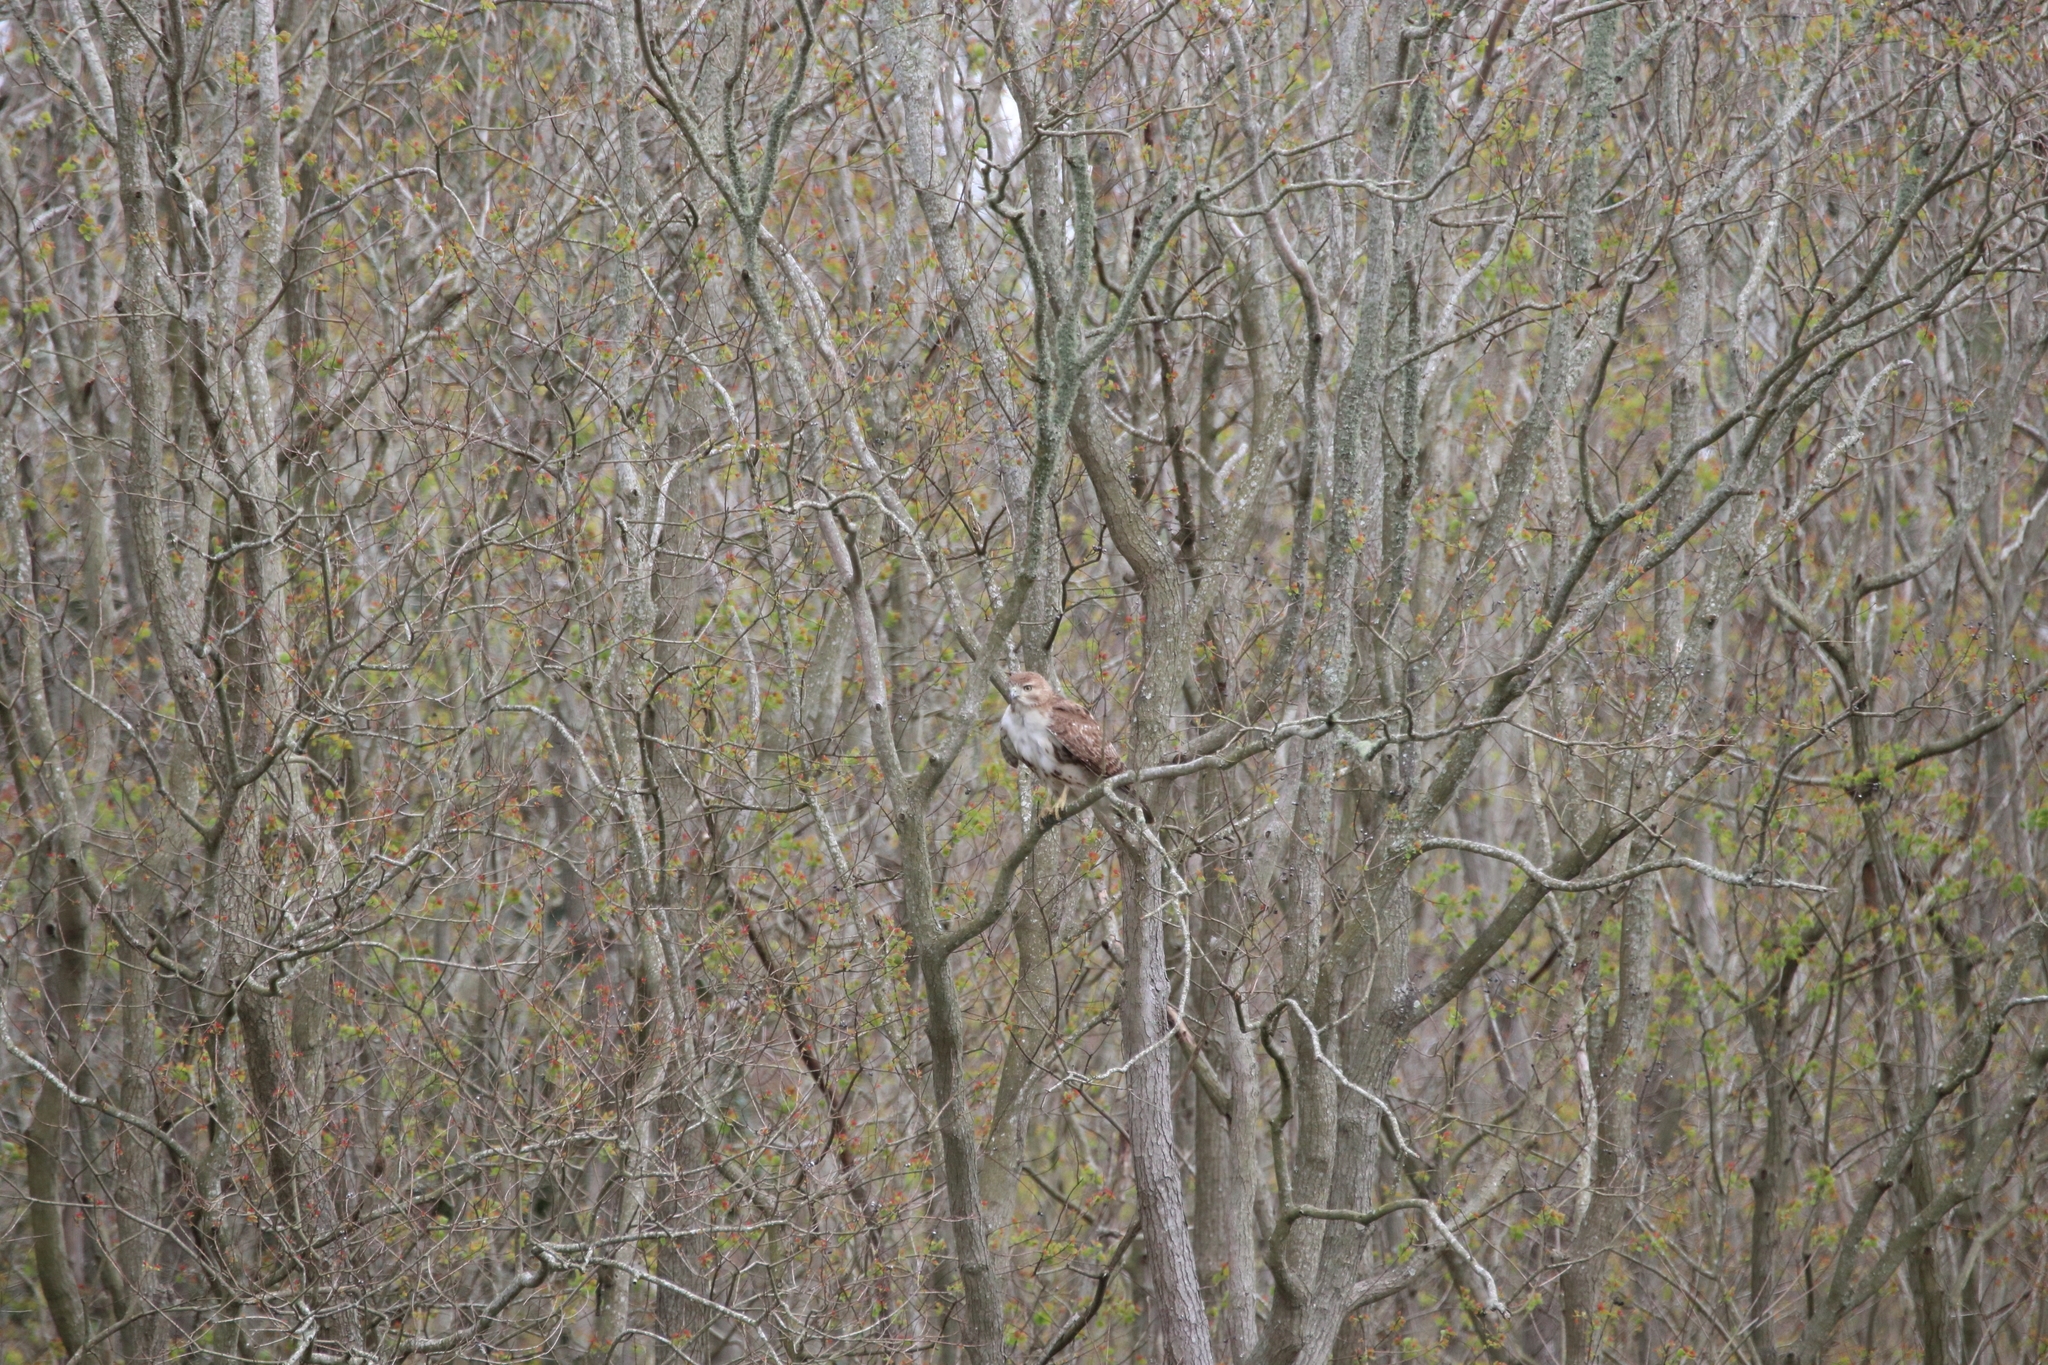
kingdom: Animalia
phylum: Chordata
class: Aves
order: Accipitriformes
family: Accipitridae
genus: Buteo
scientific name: Buteo jamaicensis
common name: Red-tailed hawk
